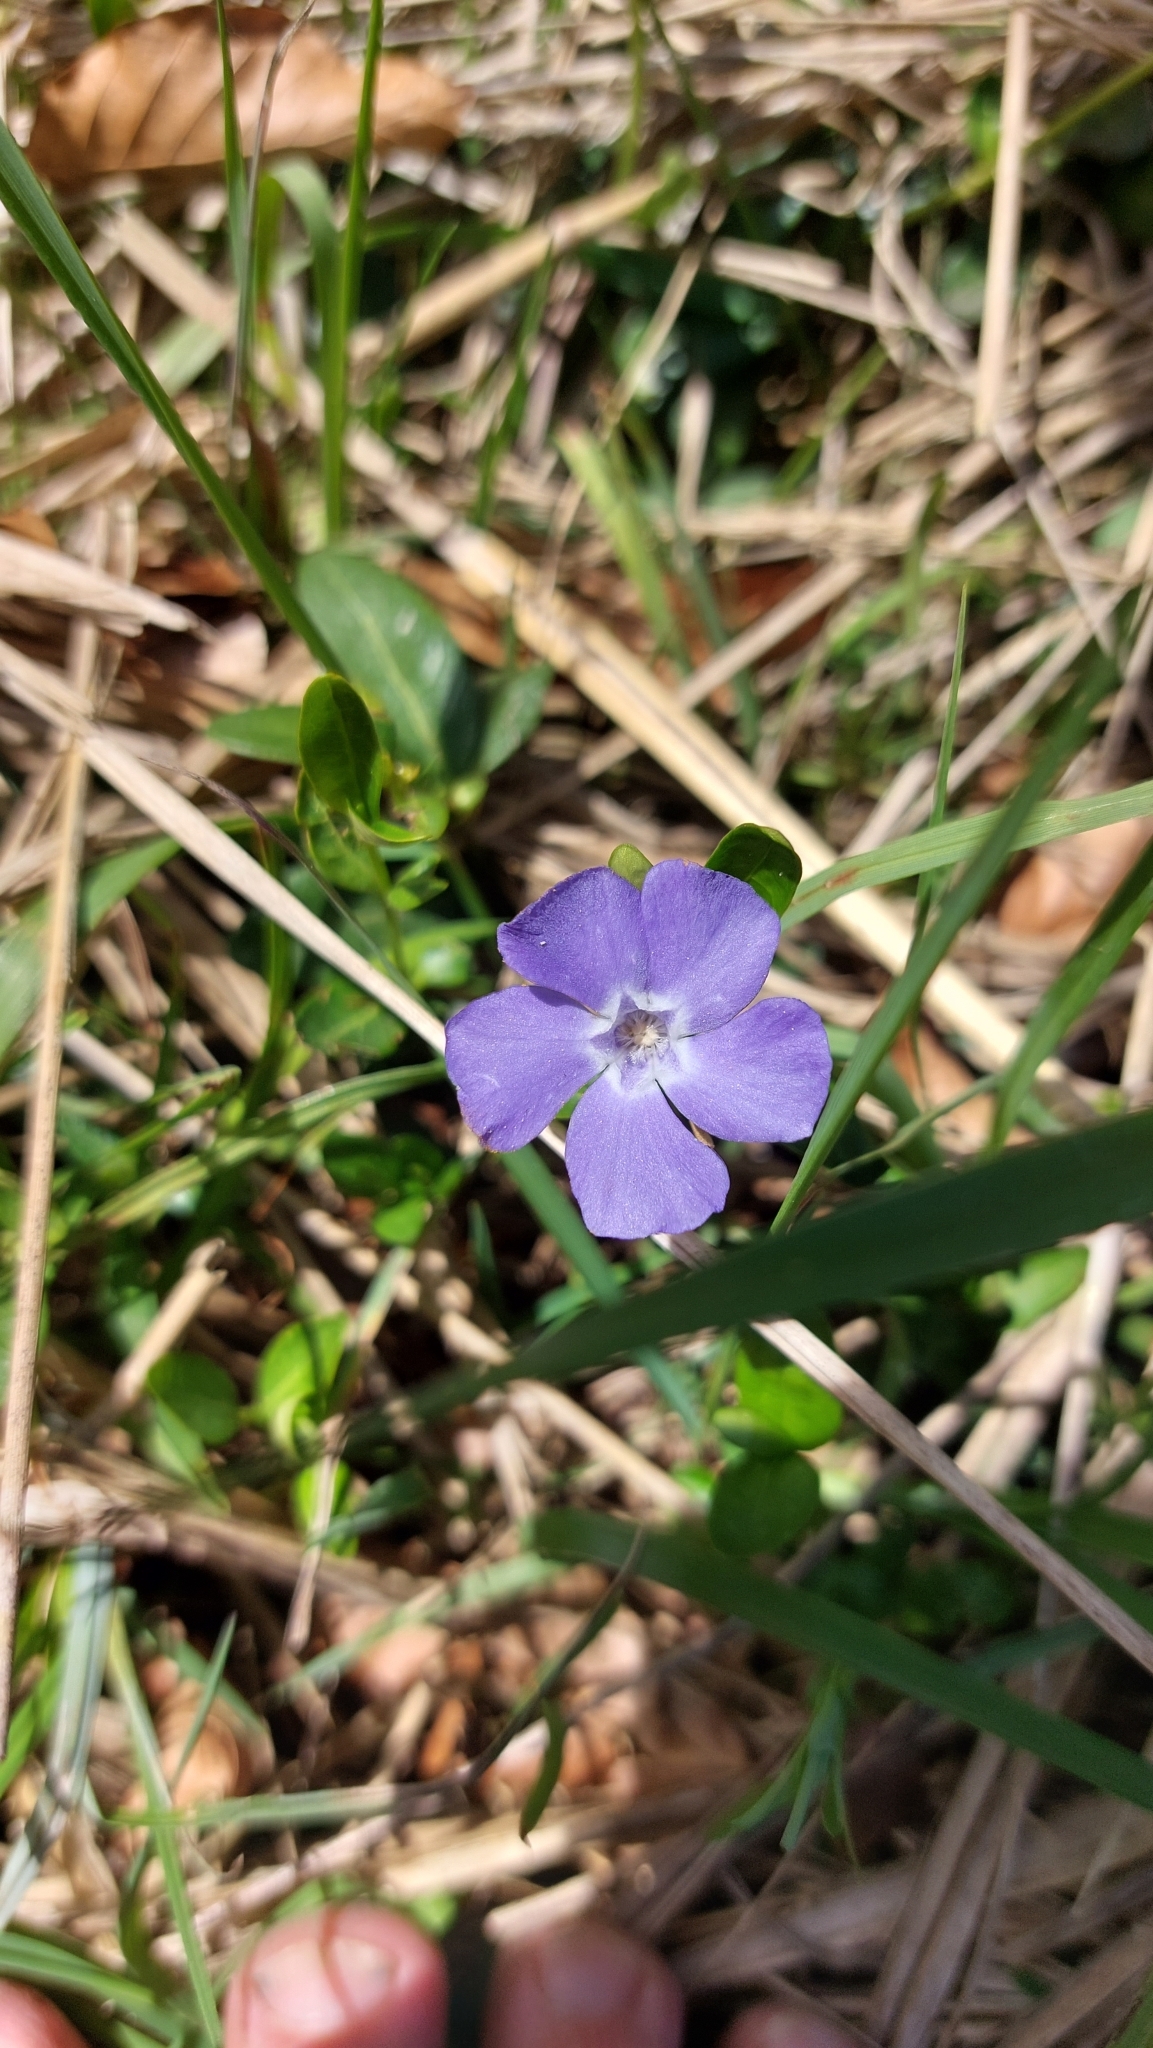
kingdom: Plantae
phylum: Tracheophyta
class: Magnoliopsida
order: Gentianales
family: Apocynaceae
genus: Vinca
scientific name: Vinca minor
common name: Lesser periwinkle
